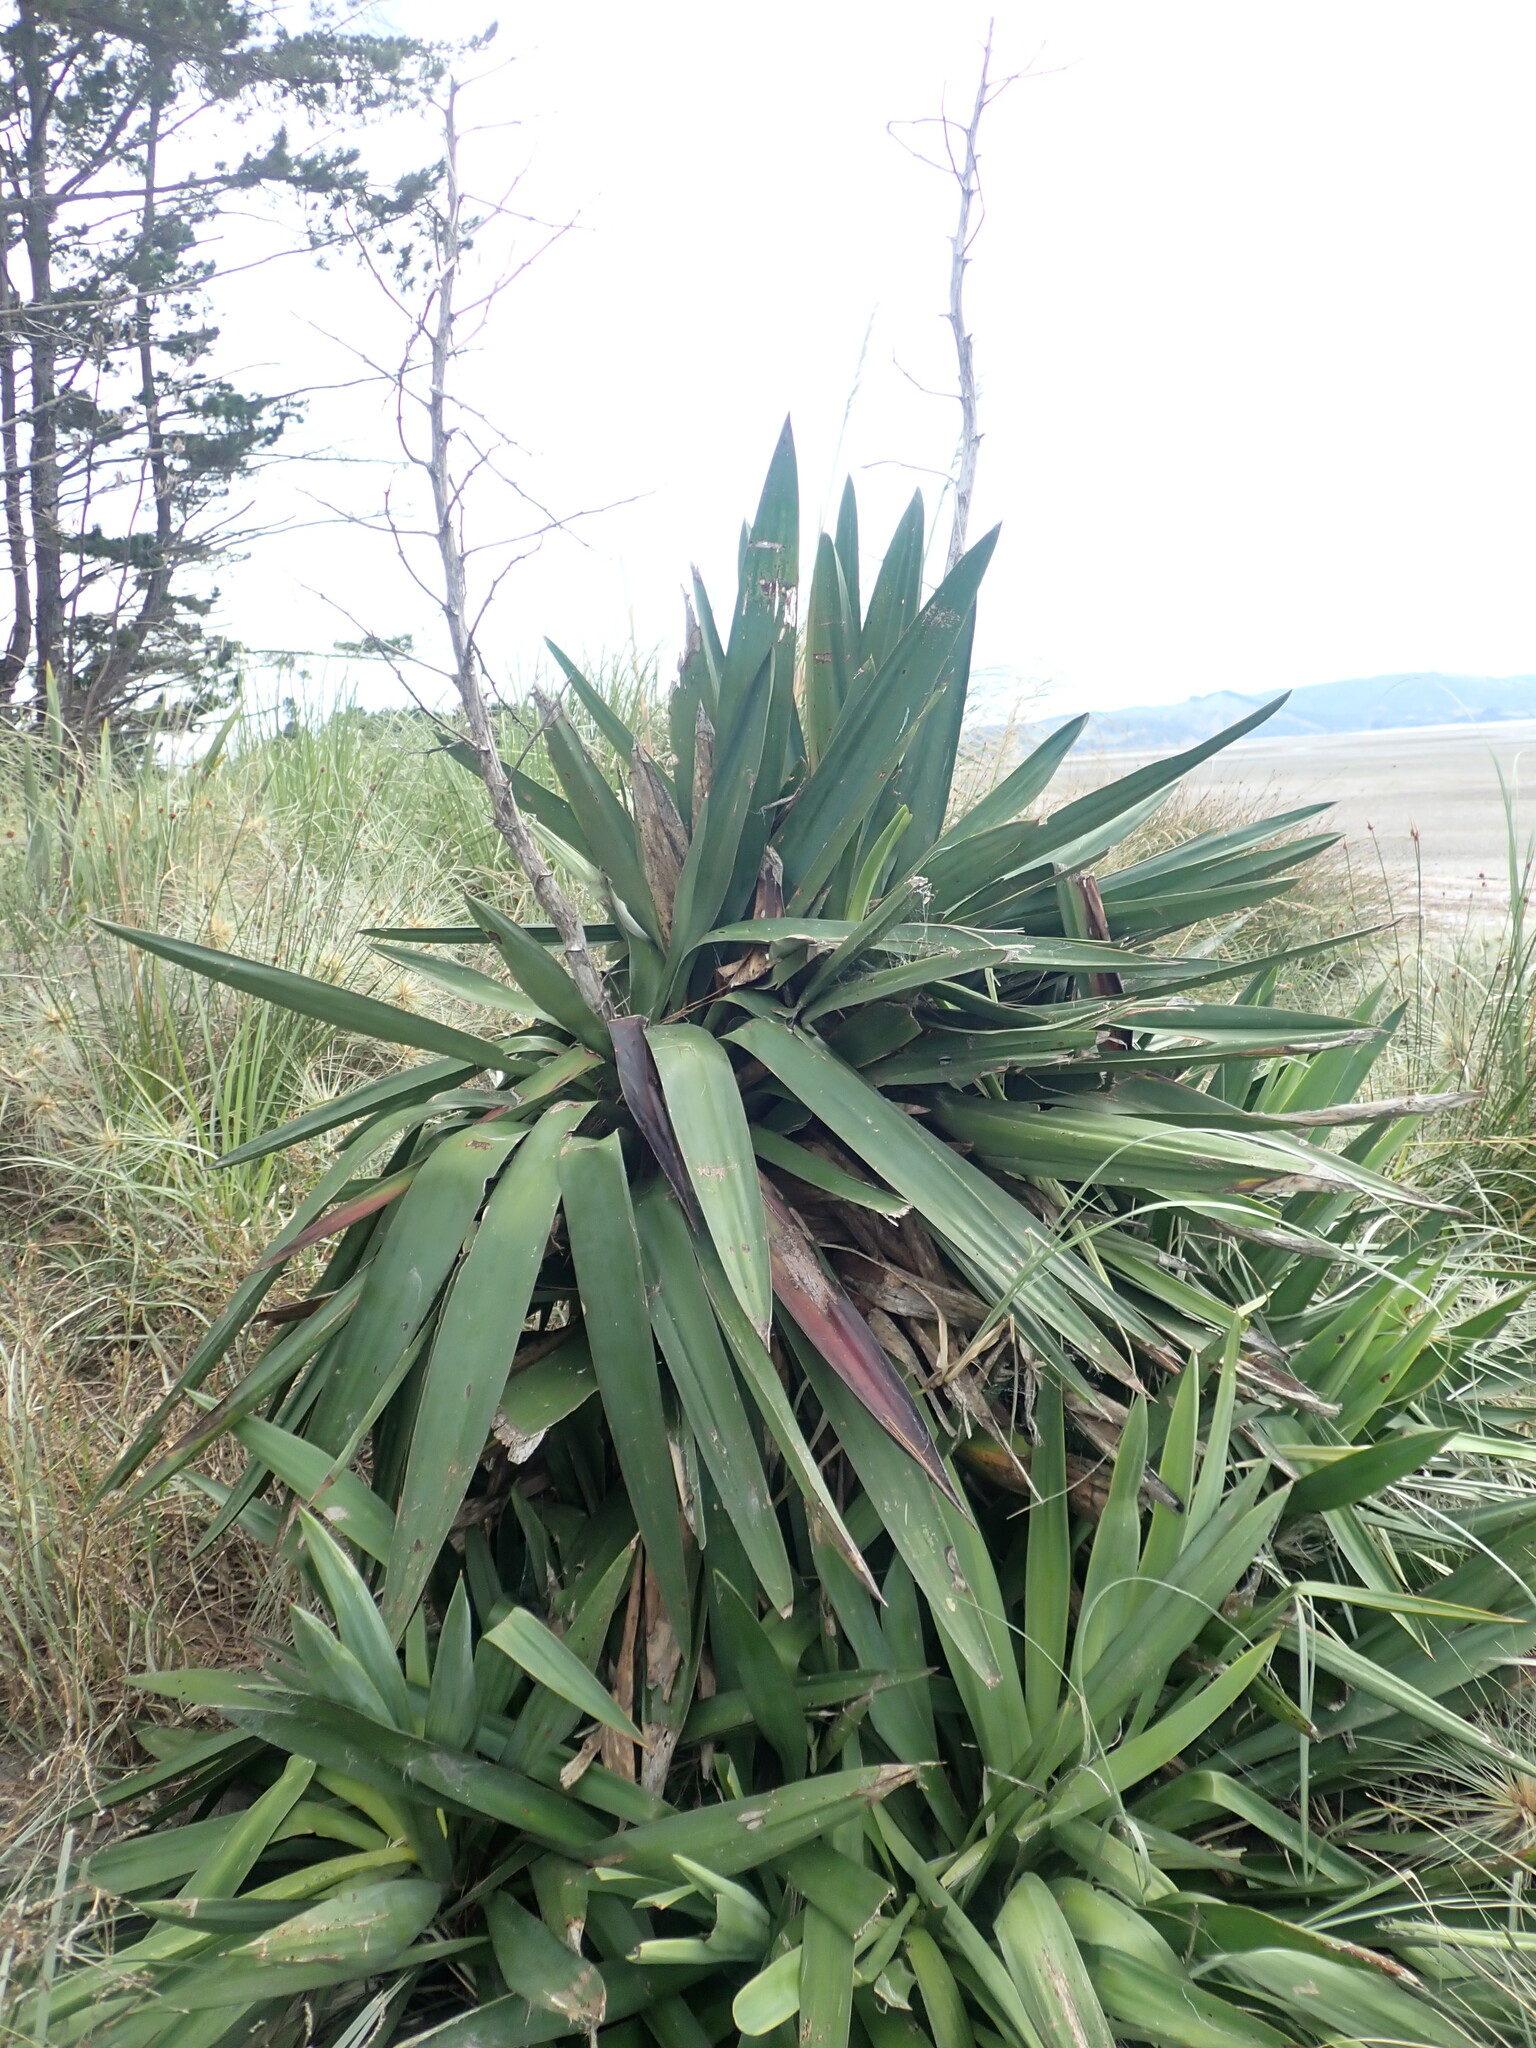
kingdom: Plantae
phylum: Tracheophyta
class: Liliopsida
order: Asparagales
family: Asparagaceae
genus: Yucca
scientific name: Yucca gloriosa
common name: Spanish-dagger
